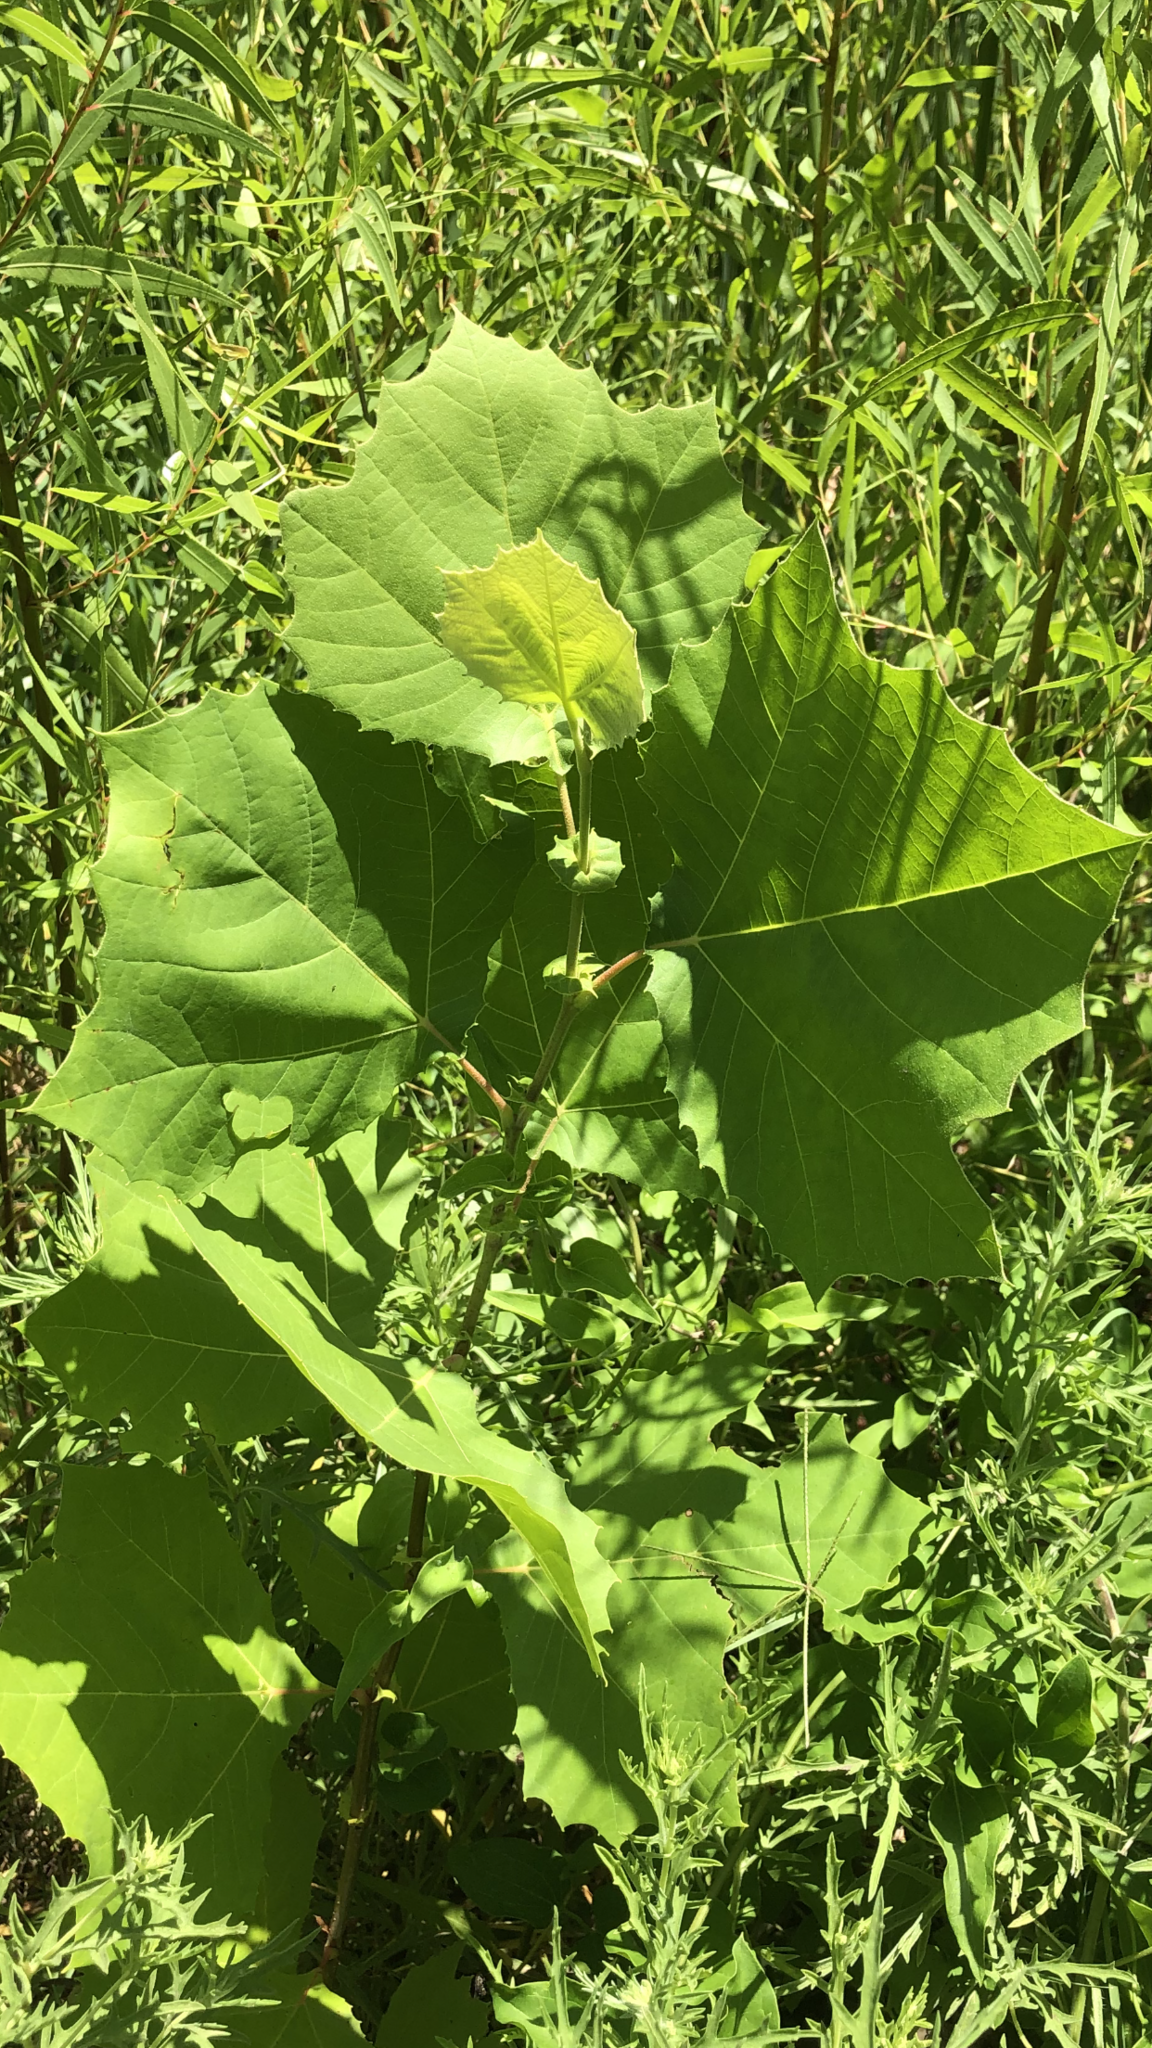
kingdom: Plantae
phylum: Tracheophyta
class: Magnoliopsida
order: Proteales
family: Platanaceae
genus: Platanus
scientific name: Platanus occidentalis
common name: American sycamore
